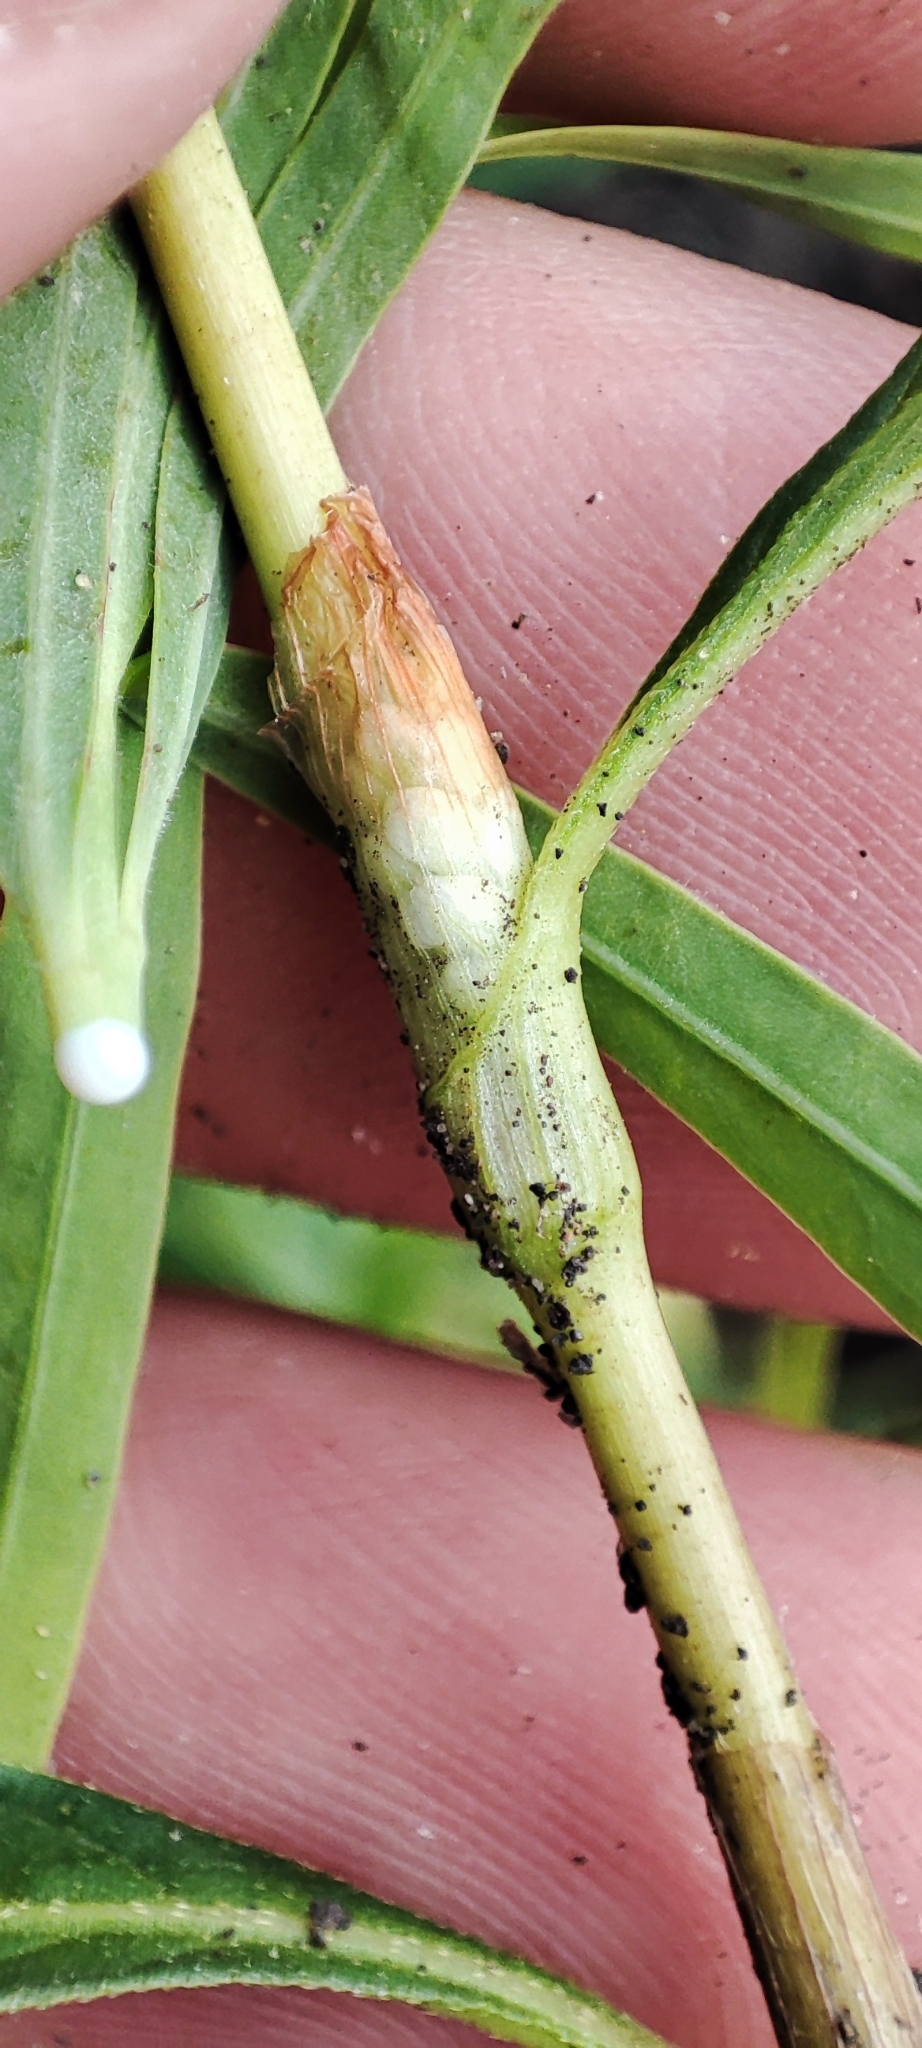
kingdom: Plantae
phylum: Tracheophyta
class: Magnoliopsida
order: Caryophyllales
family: Polygonaceae
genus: Persicaria
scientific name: Persicaria lapathifolia
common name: Curlytop knotweed
